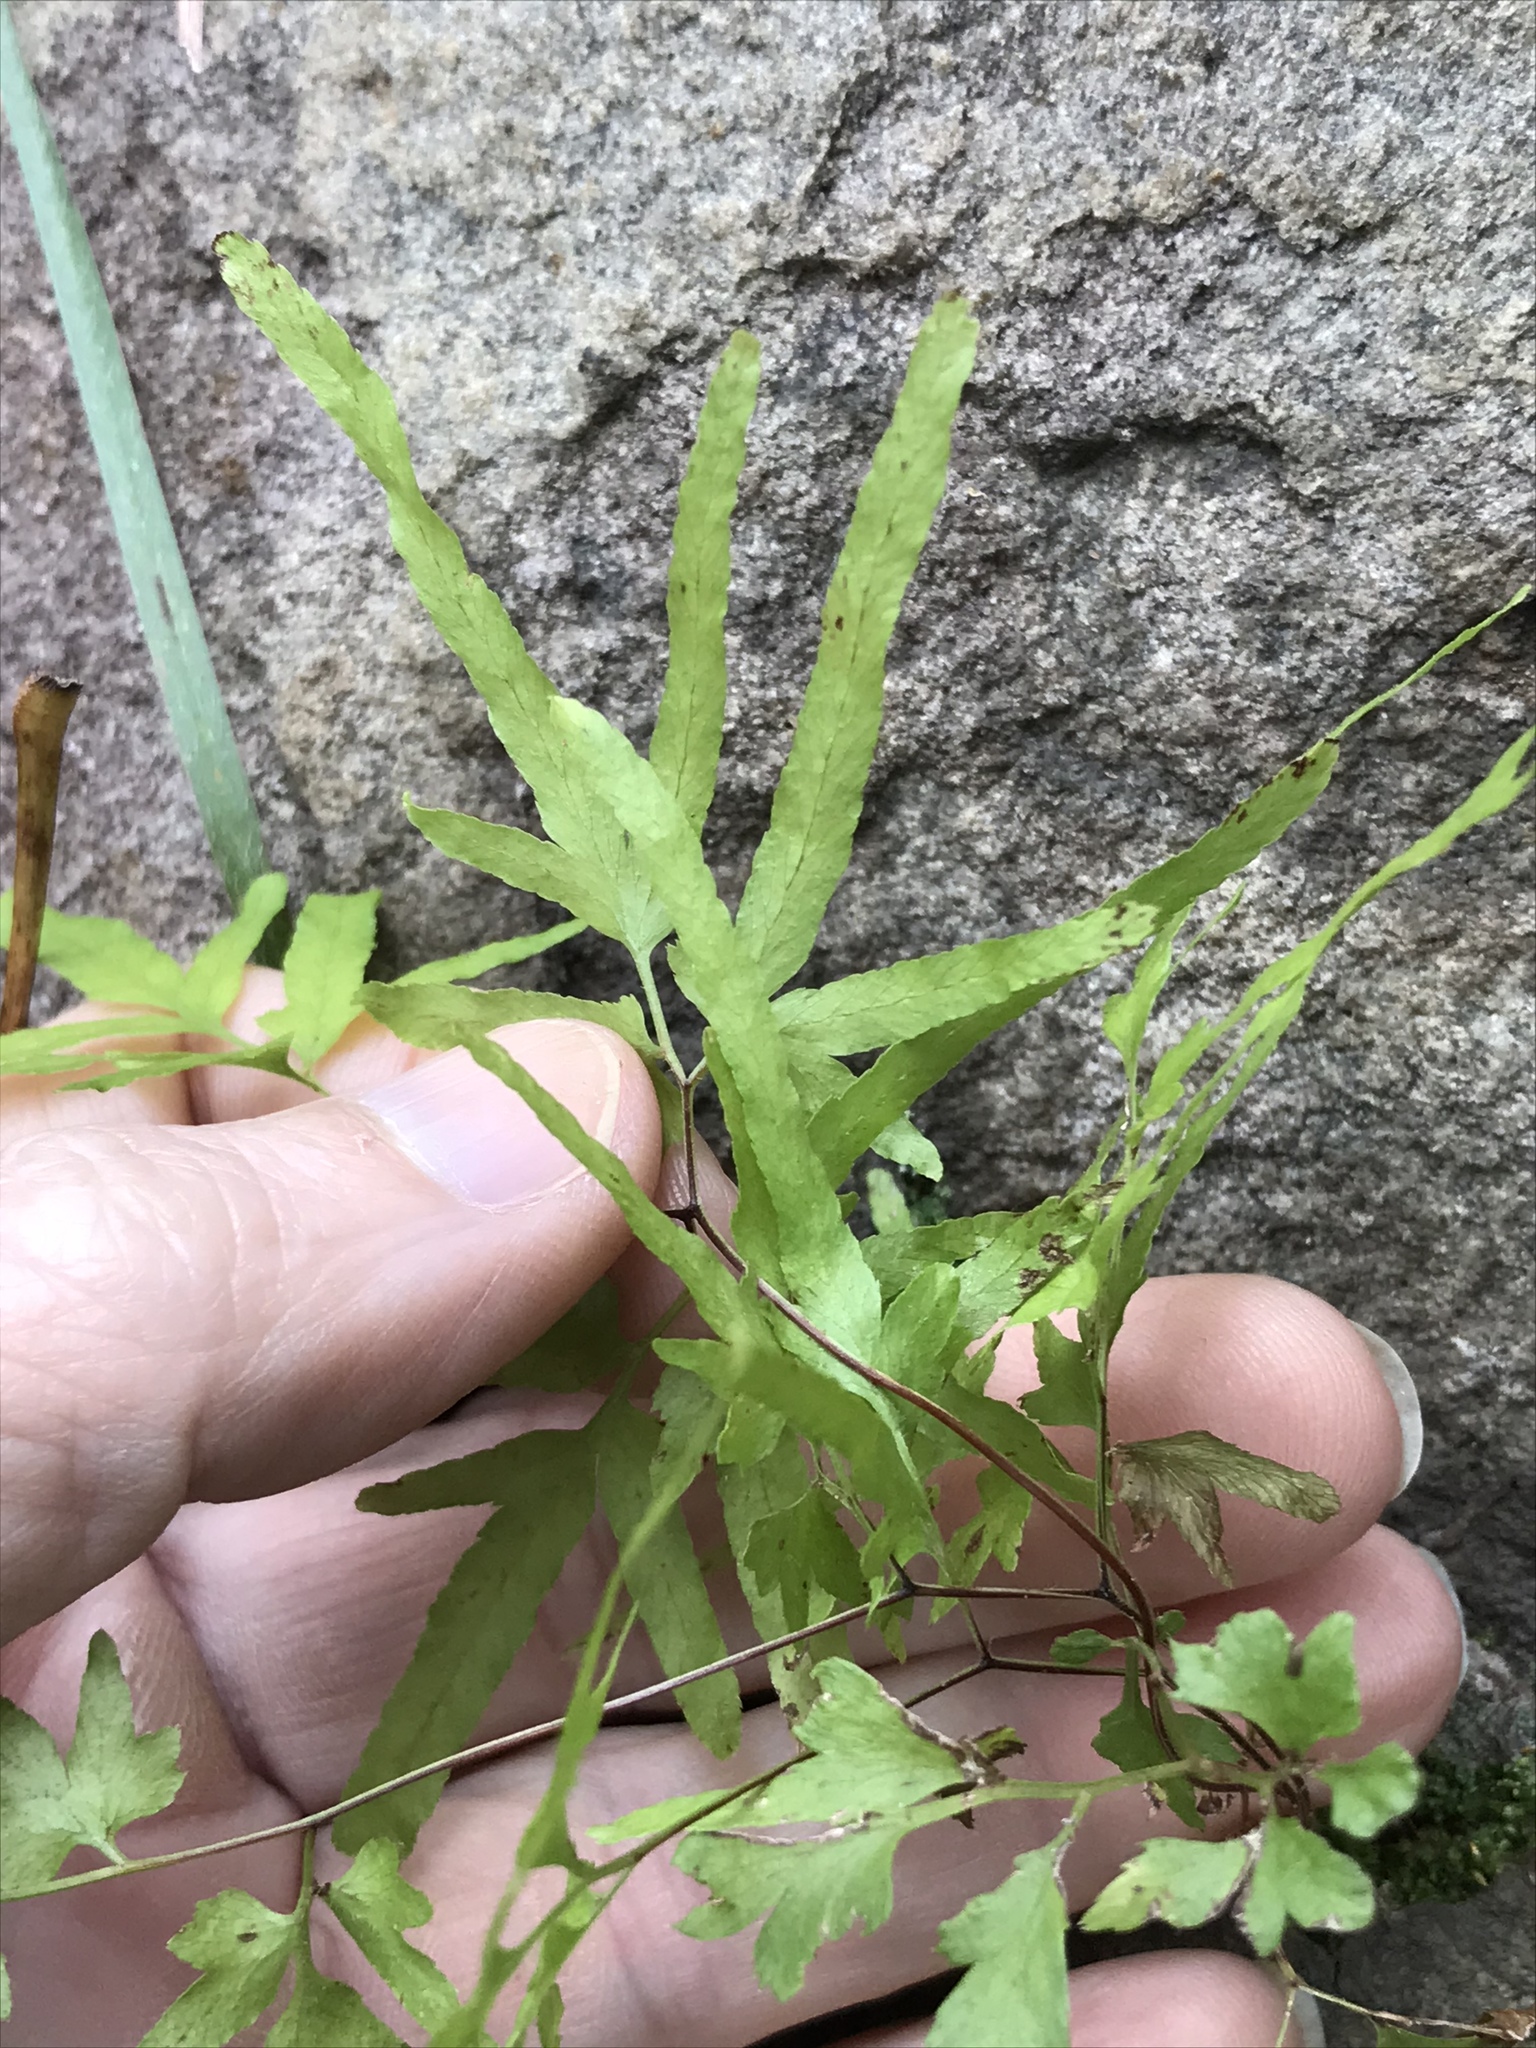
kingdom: Plantae
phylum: Tracheophyta
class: Polypodiopsida
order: Schizaeales
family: Lygodiaceae
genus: Lygodium
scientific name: Lygodium japonicum
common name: Japanese climbing fern
